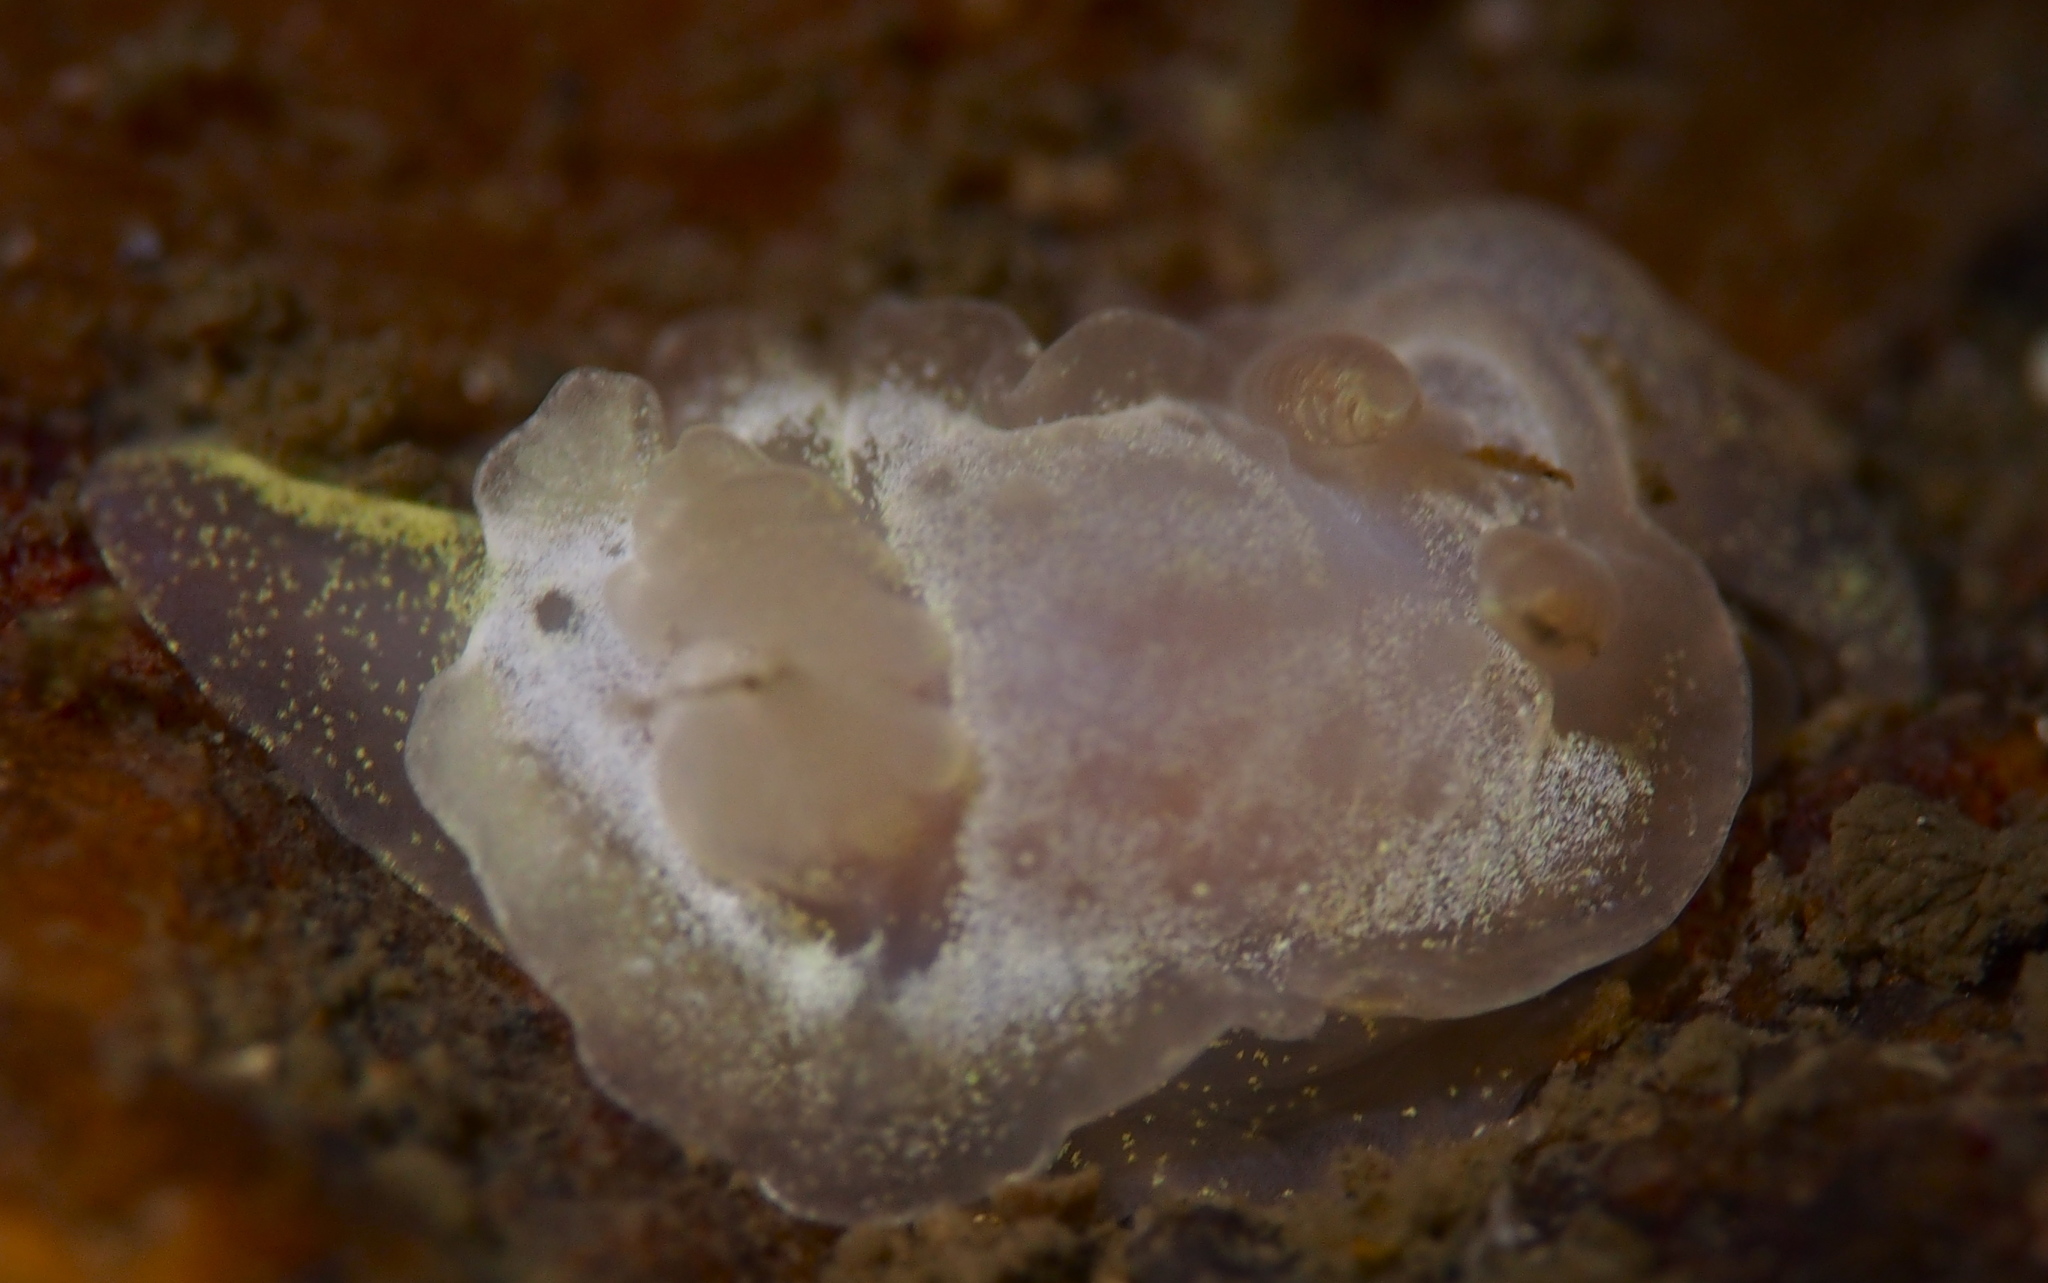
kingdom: Animalia
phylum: Mollusca
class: Gastropoda
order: Nudibranchia
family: Goniodorididae
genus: Okenia
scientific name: Okenia
